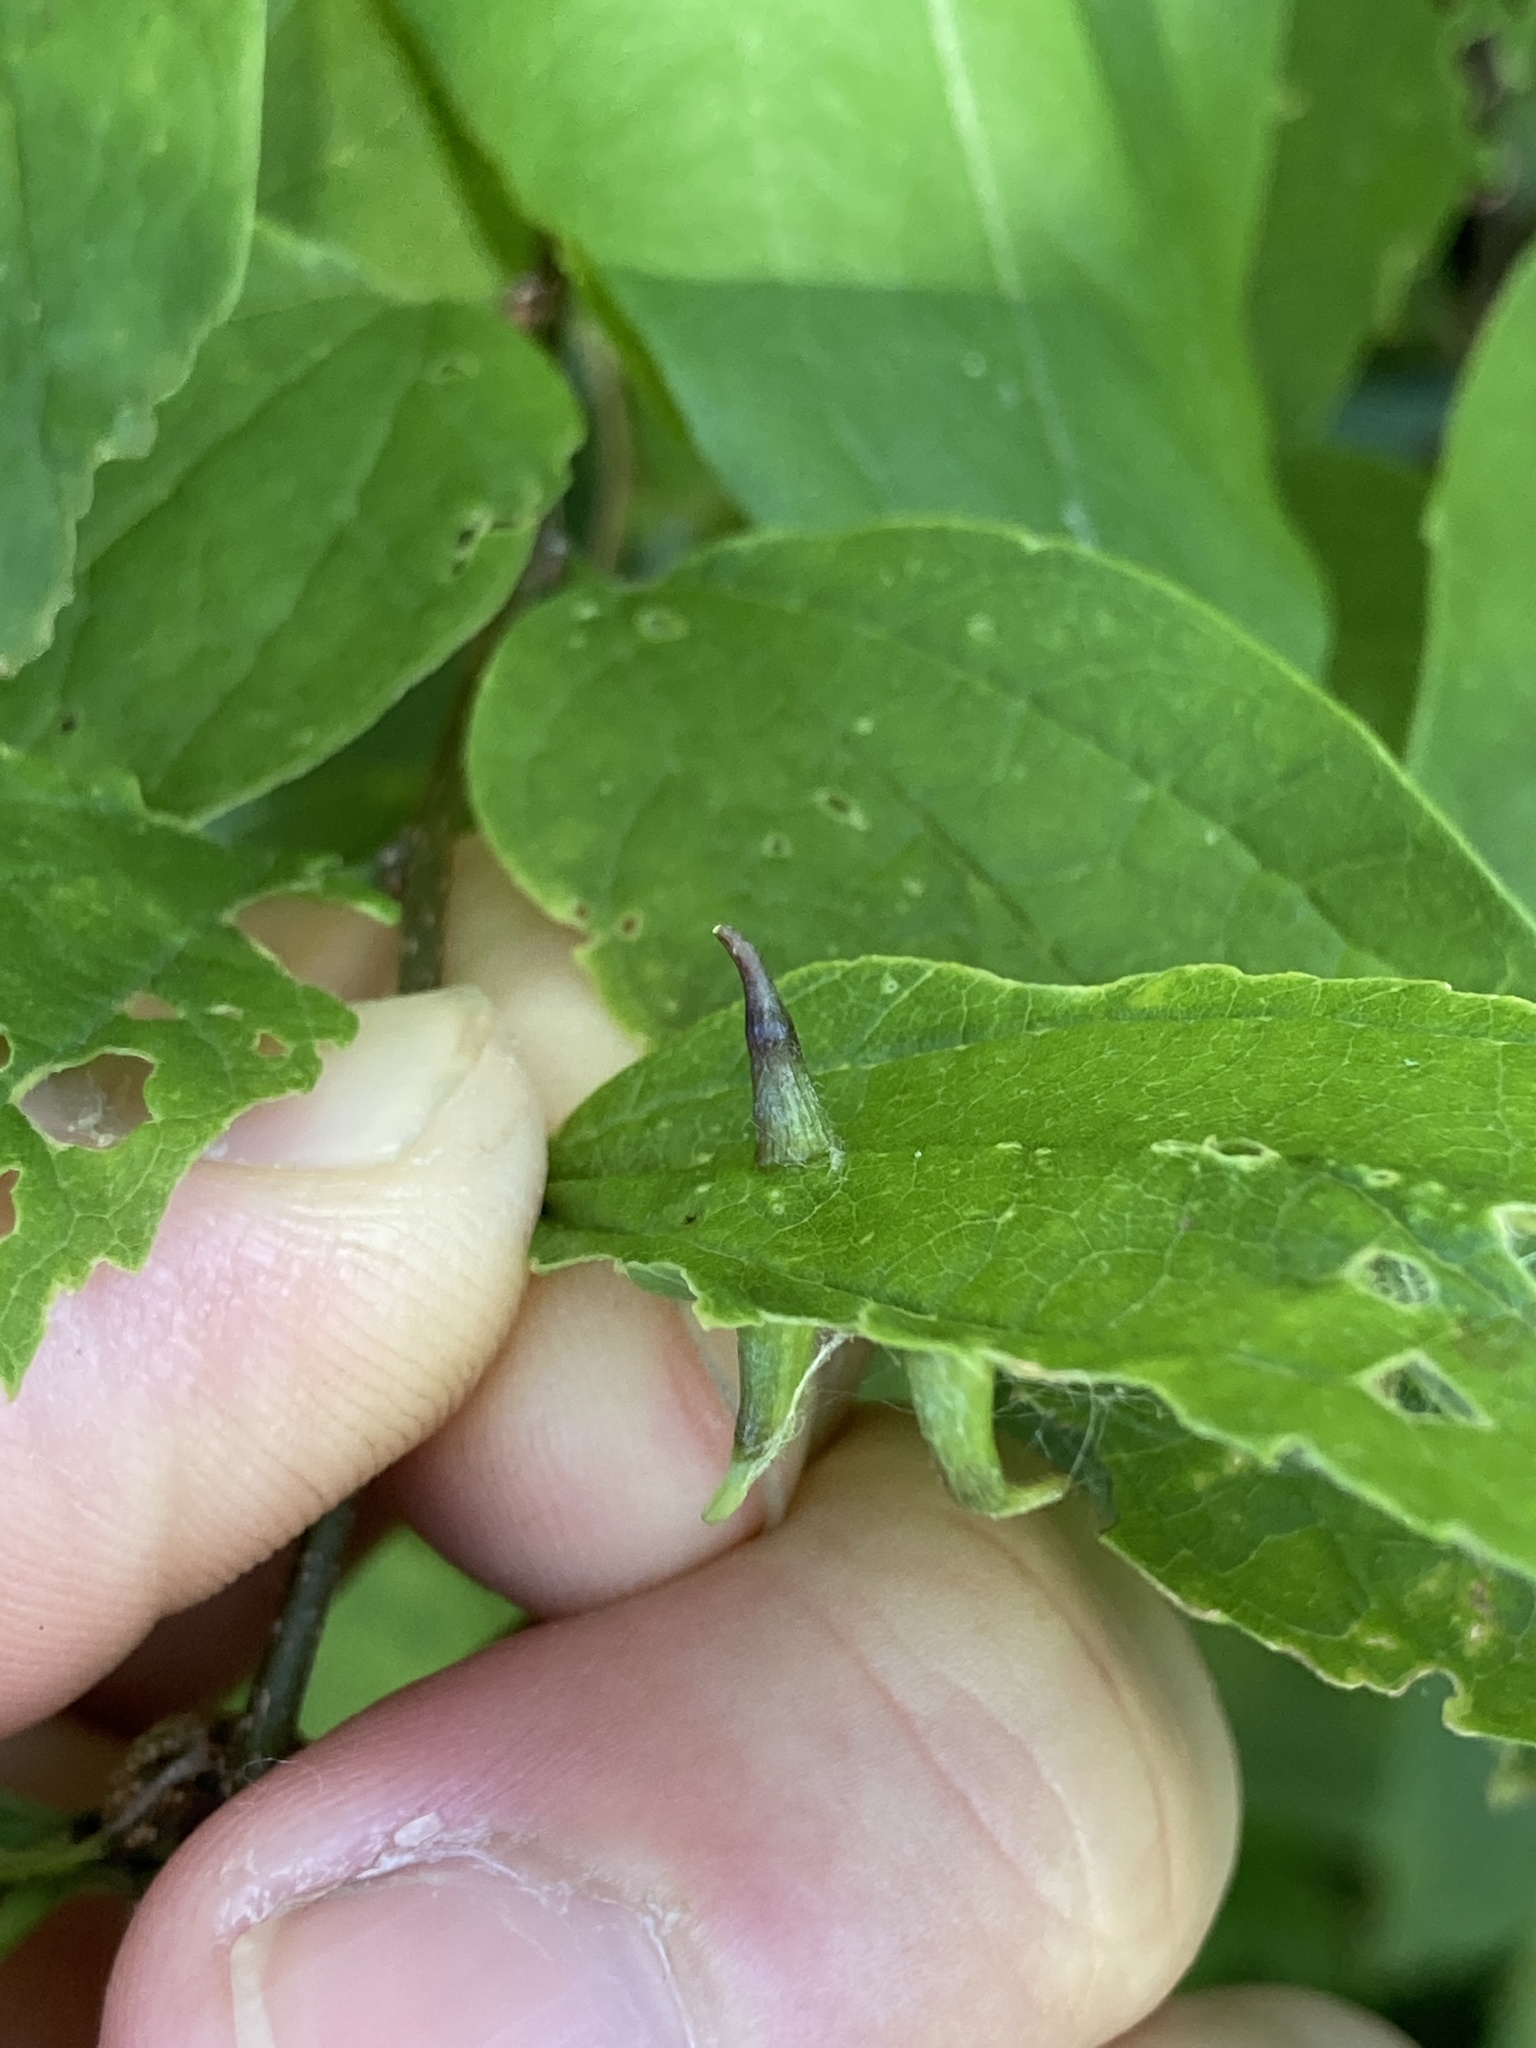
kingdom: Animalia
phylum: Arthropoda
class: Insecta
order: Diptera
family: Cecidomyiidae
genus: Celticecis
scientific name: Celticecis subulata
